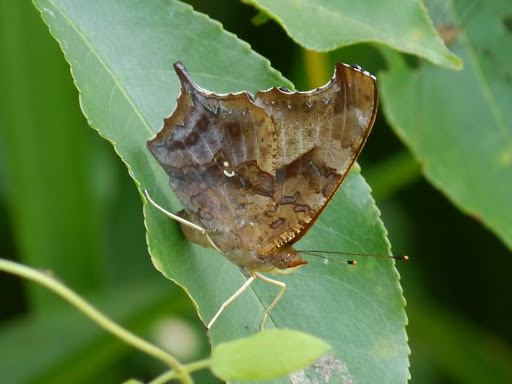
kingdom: Animalia
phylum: Arthropoda
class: Insecta
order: Lepidoptera
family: Nymphalidae
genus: Polygonia
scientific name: Polygonia interrogationis
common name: Question mark
